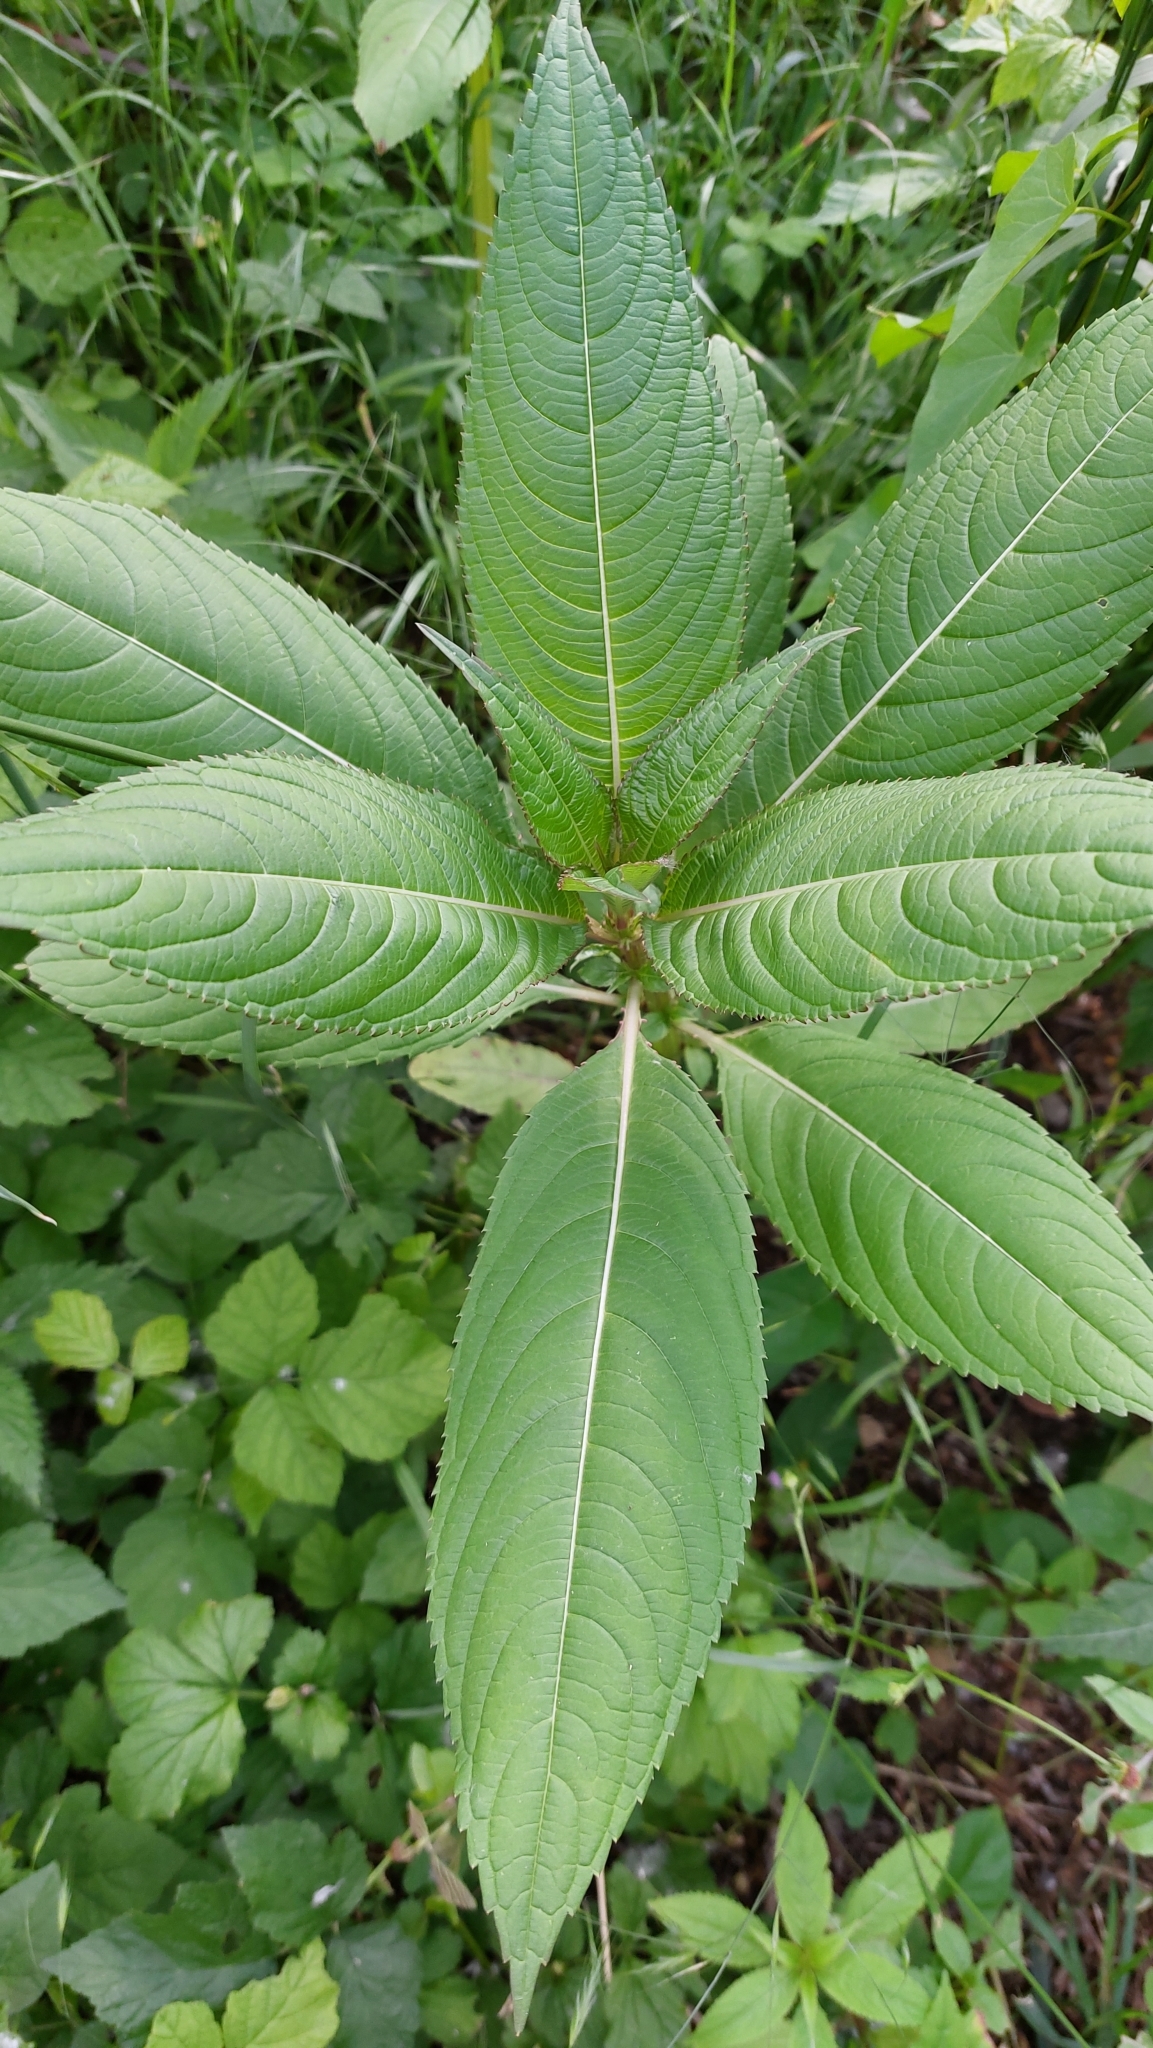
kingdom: Plantae
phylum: Tracheophyta
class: Magnoliopsida
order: Ericales
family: Balsaminaceae
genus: Impatiens
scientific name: Impatiens glandulifera
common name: Himalayan balsam
